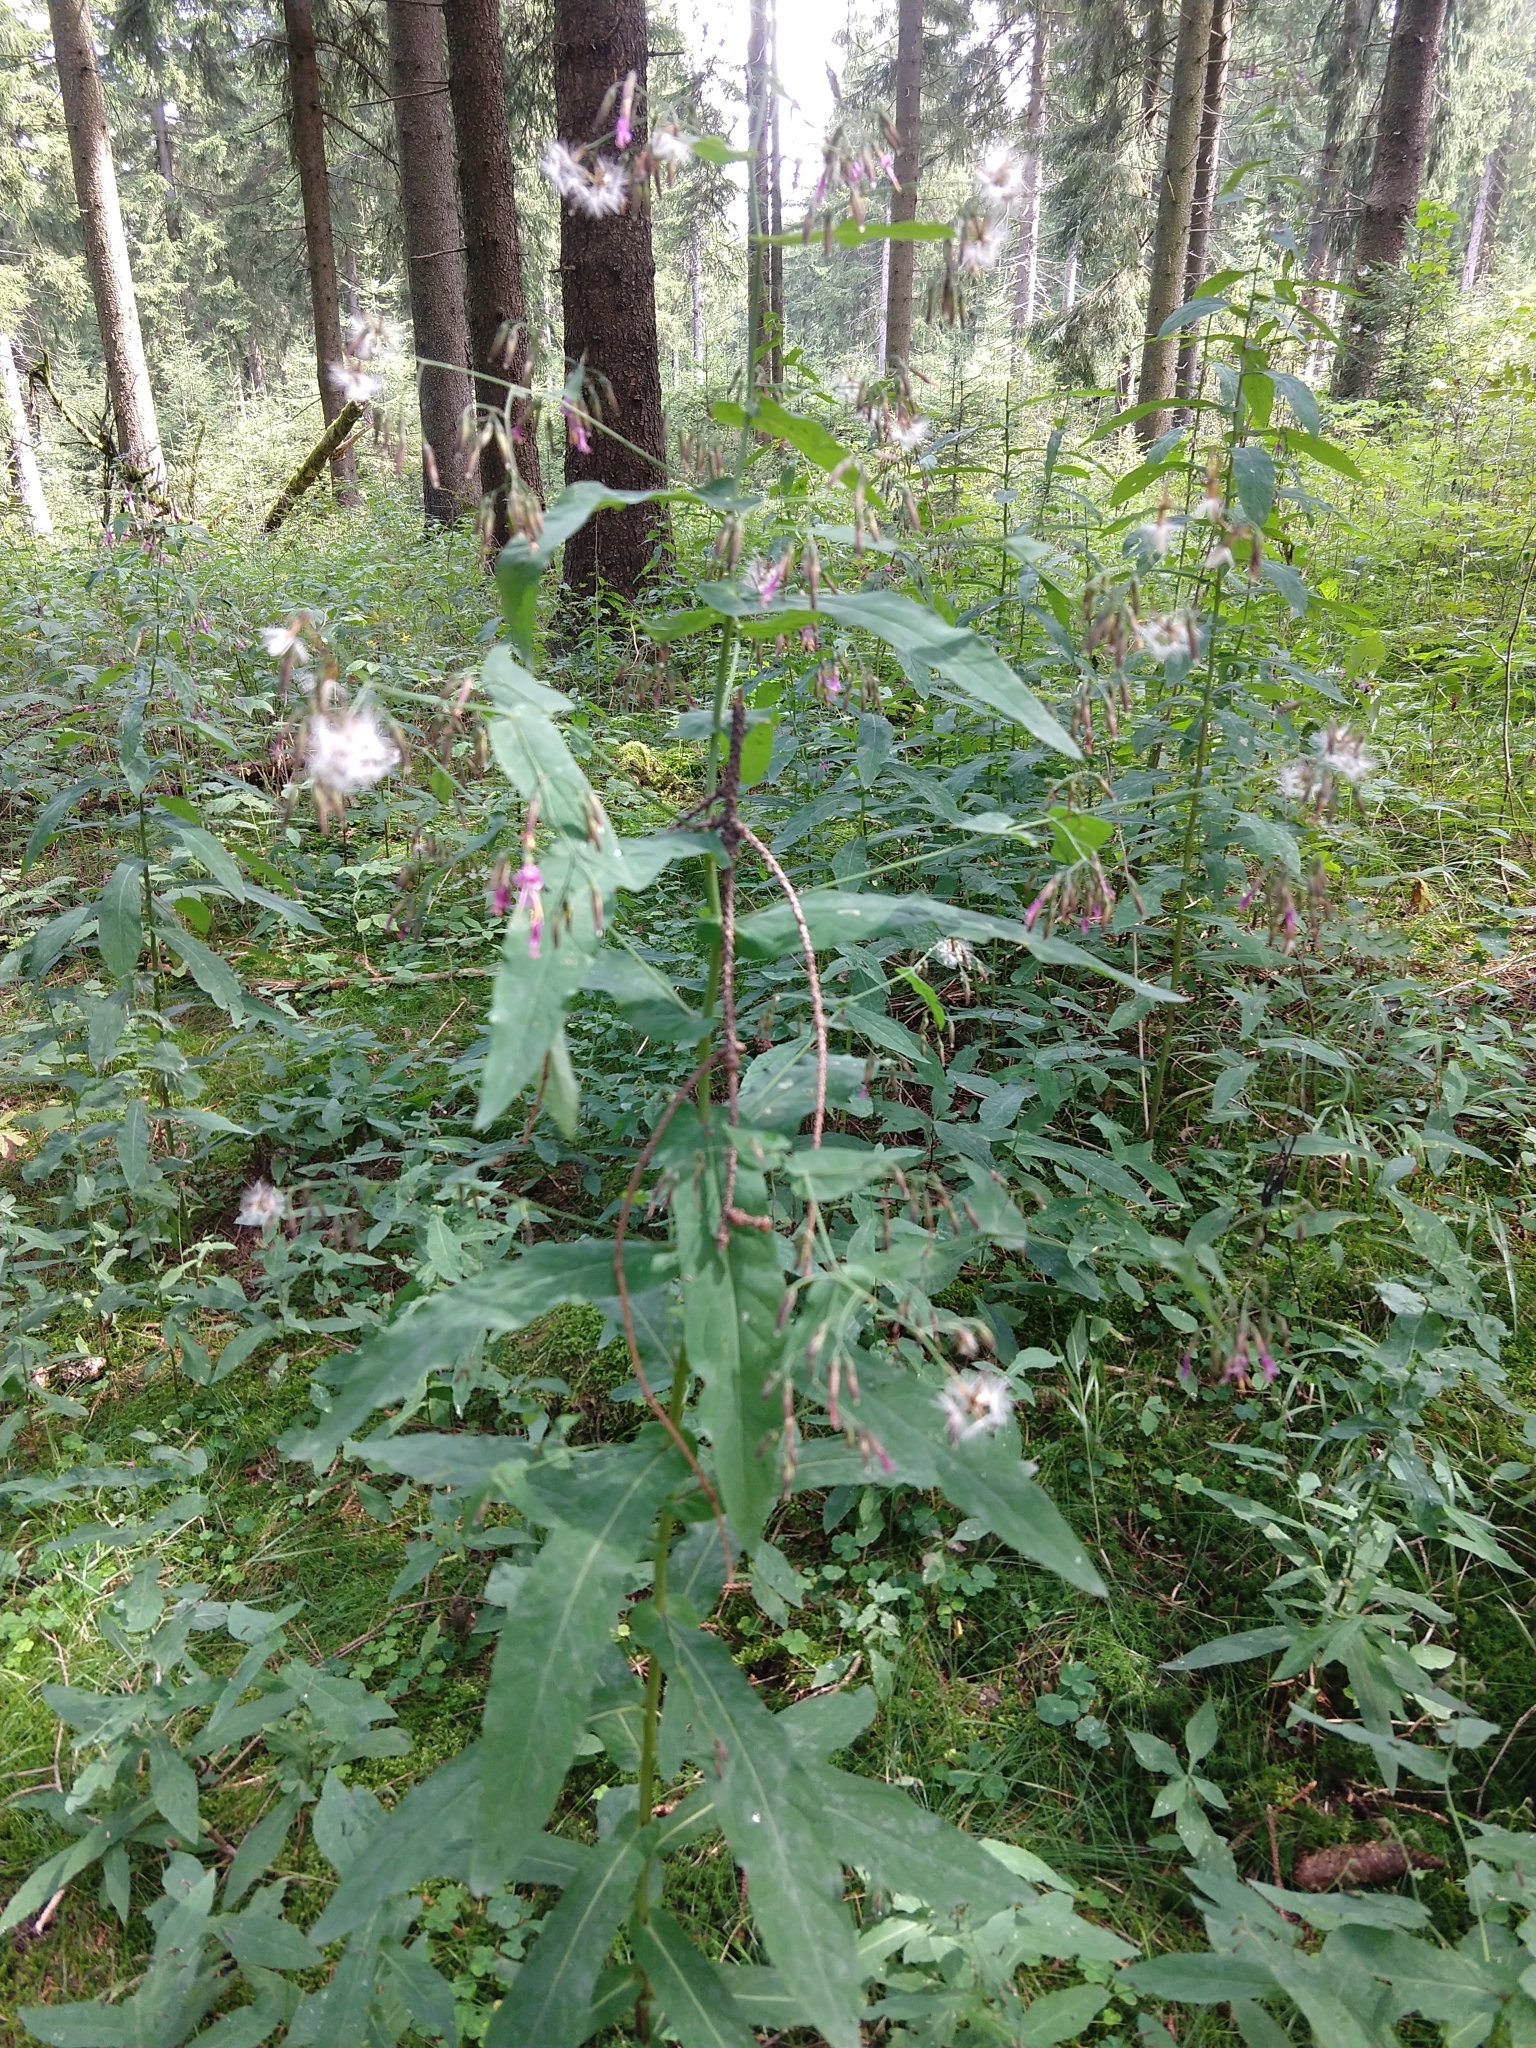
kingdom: Plantae
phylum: Tracheophyta
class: Magnoliopsida
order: Asterales
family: Asteraceae
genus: Prenanthes
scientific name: Prenanthes purpurea
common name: Purple lettuce
